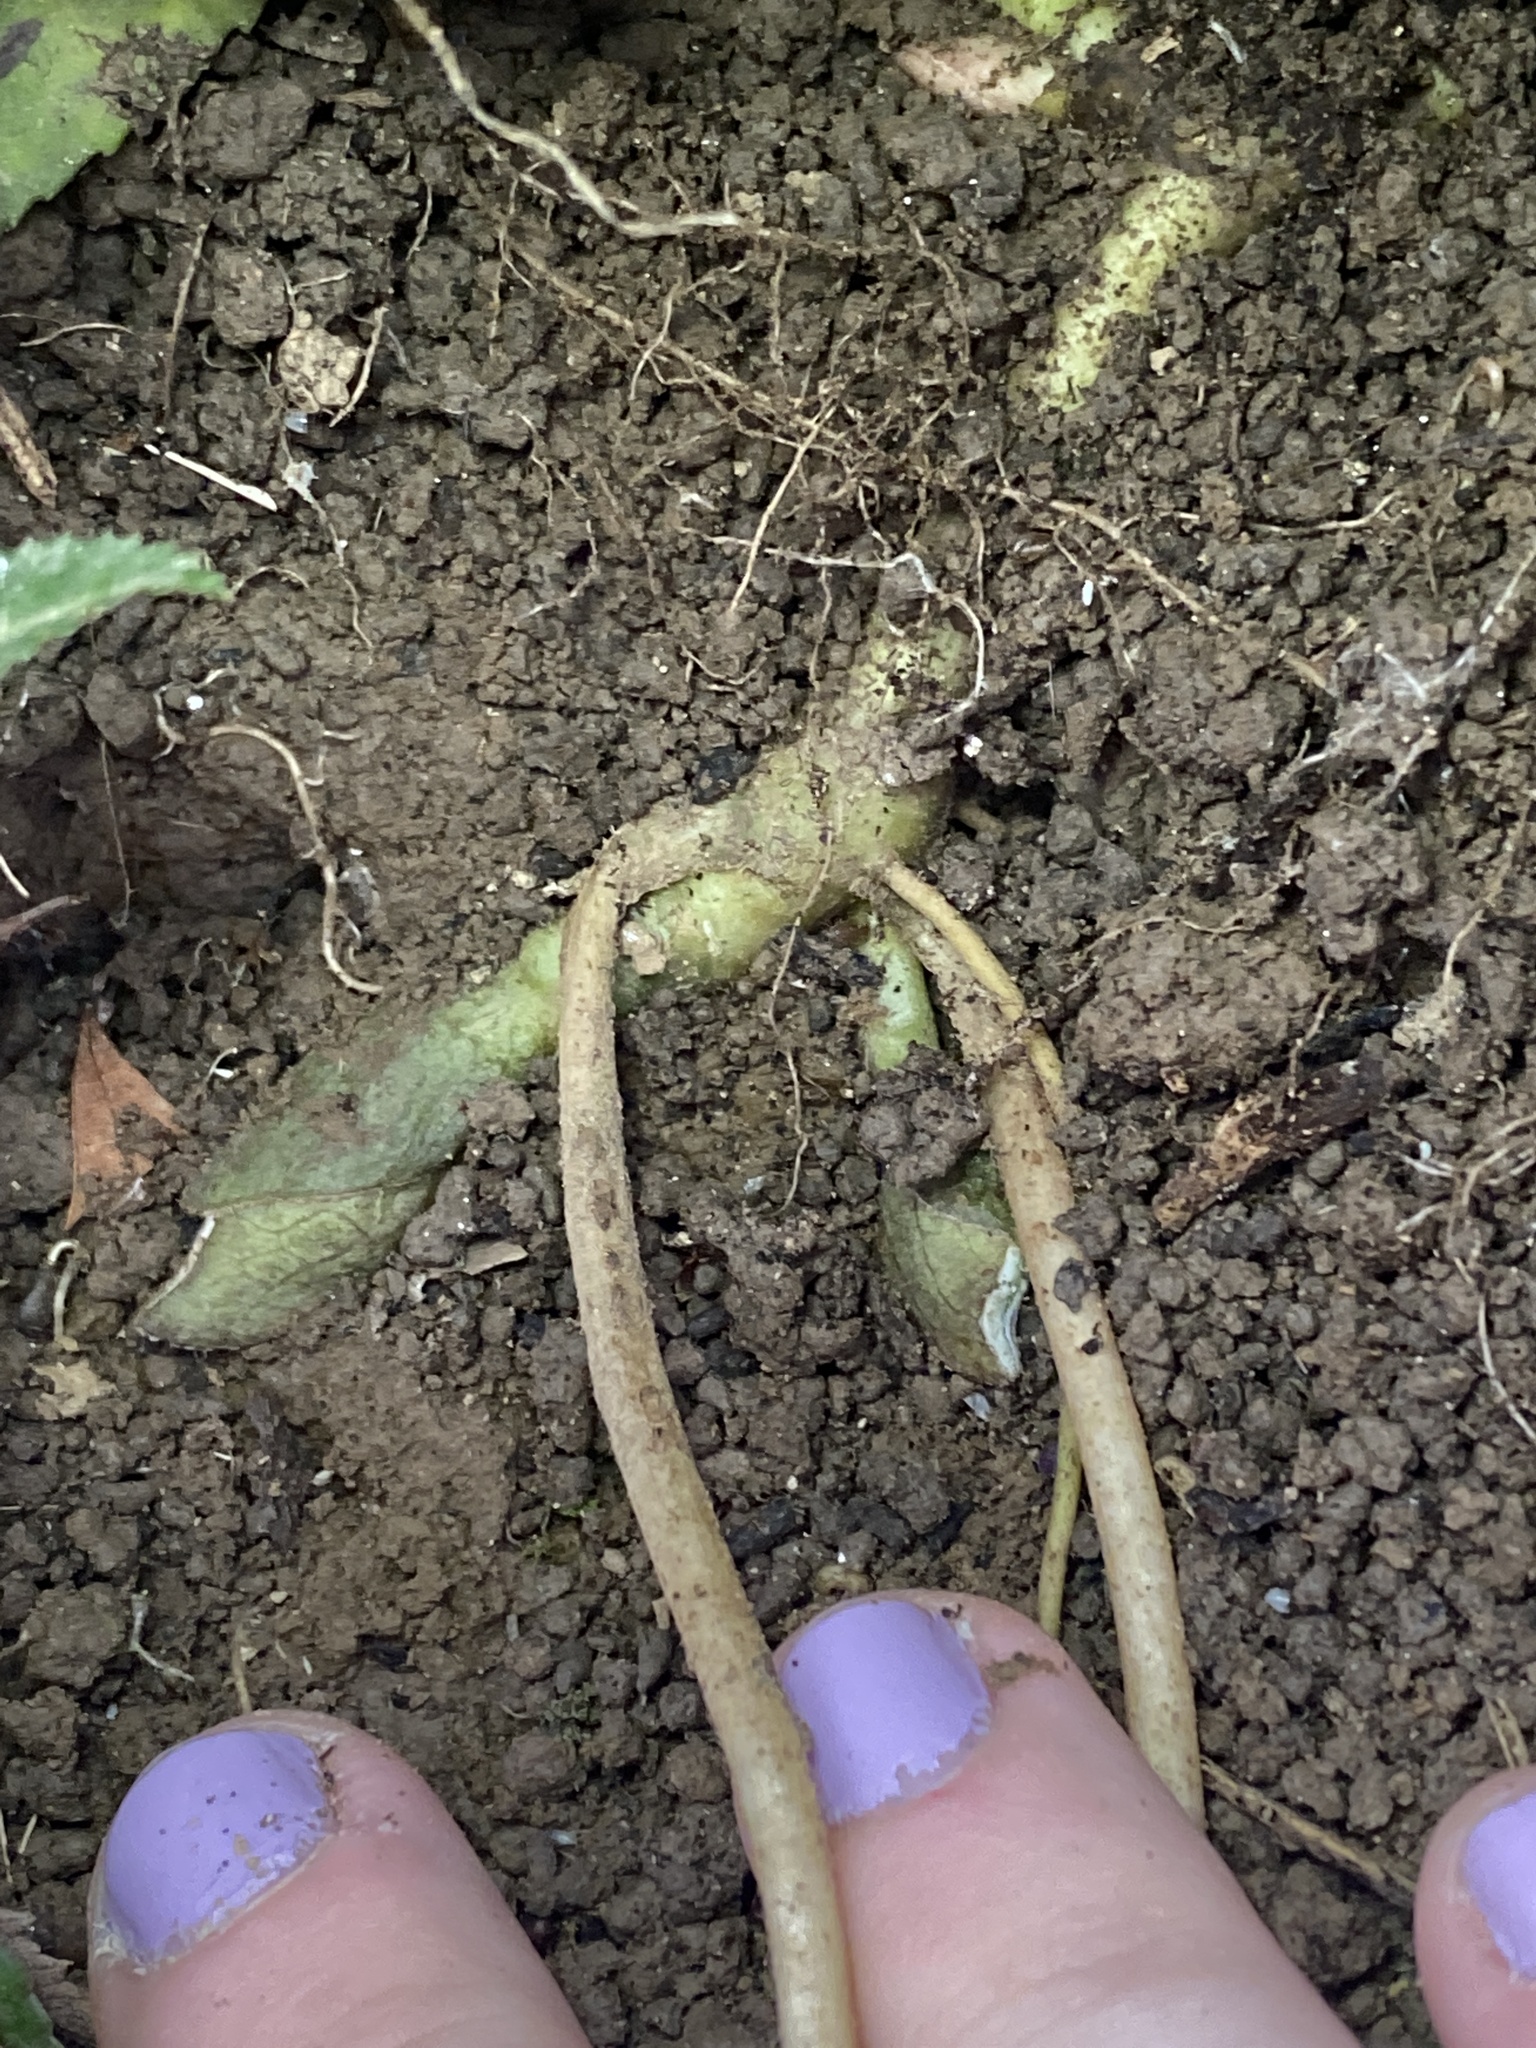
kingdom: Plantae
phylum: Tracheophyta
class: Magnoliopsida
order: Piperales
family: Aristolochiaceae
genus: Asarum
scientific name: Asarum canadense
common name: Wild ginger
